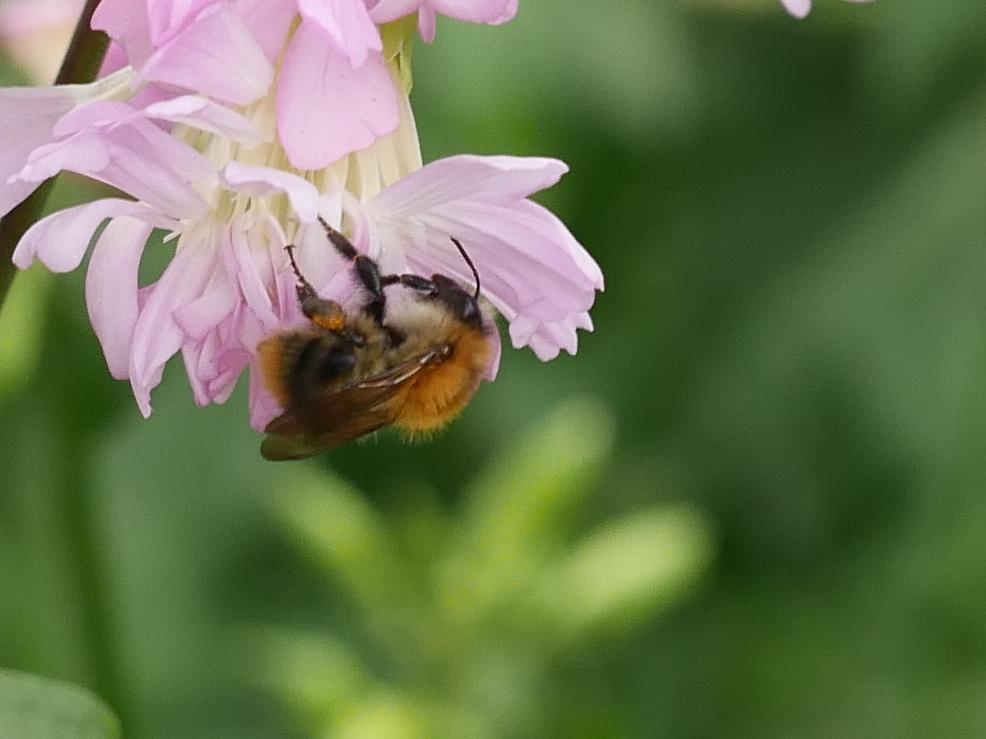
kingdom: Animalia
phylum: Arthropoda
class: Insecta
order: Hymenoptera
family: Apidae
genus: Bombus
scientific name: Bombus pascuorum
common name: Common carder bee
